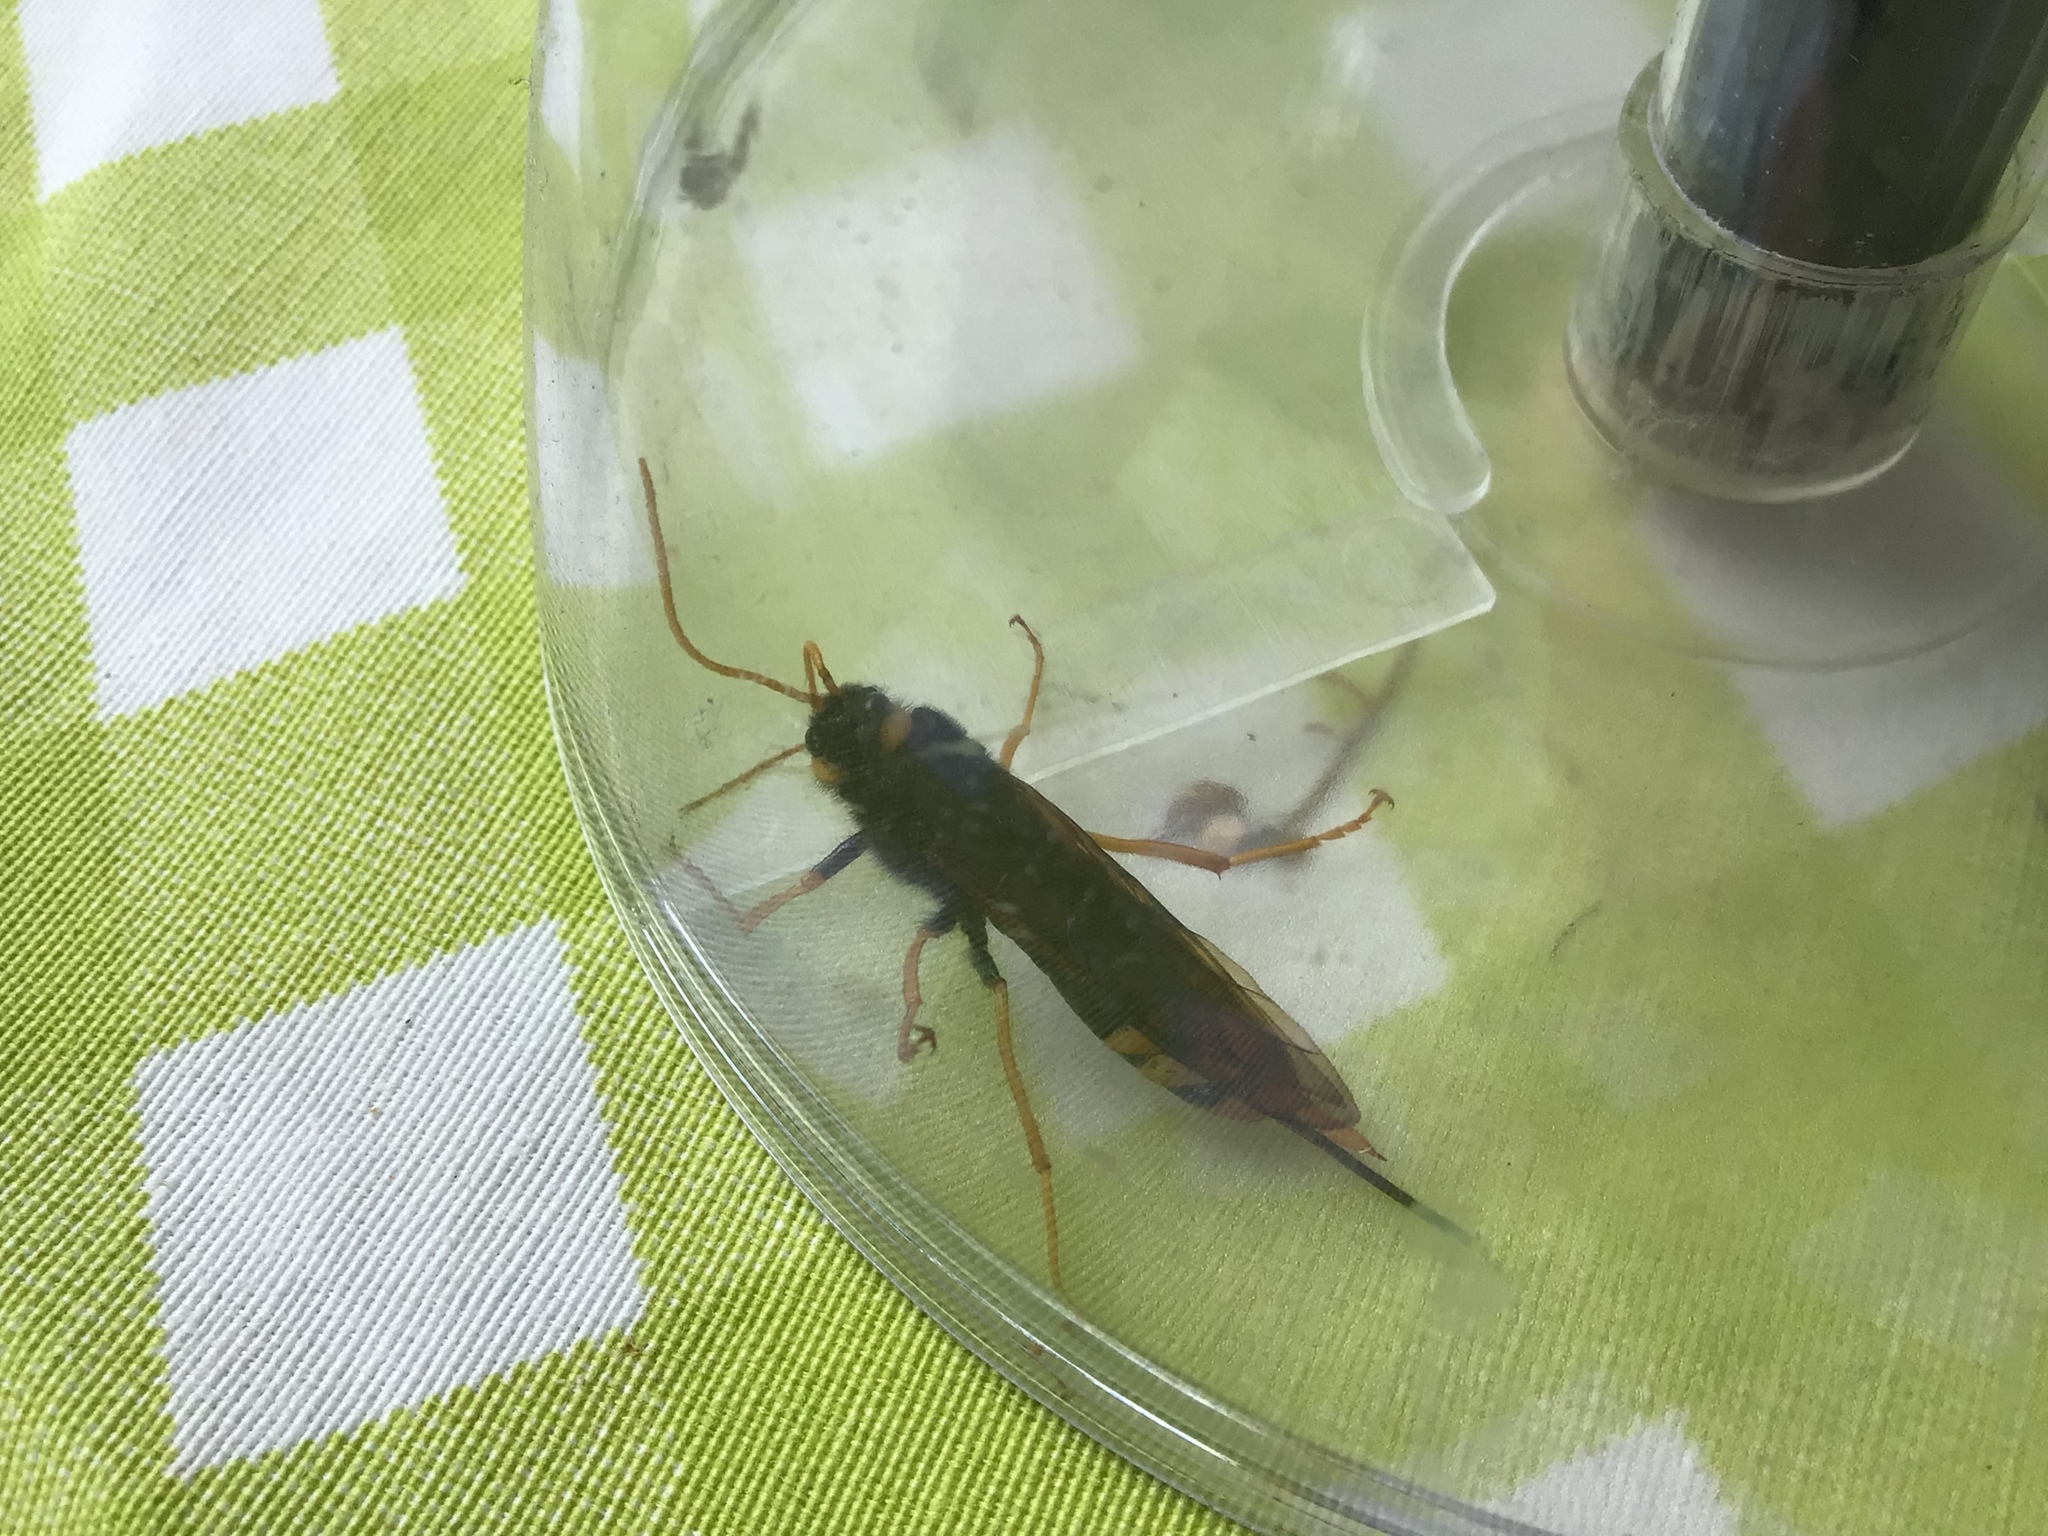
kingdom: Animalia
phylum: Arthropoda
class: Insecta
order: Hymenoptera
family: Siricidae
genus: Urocerus
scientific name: Urocerus gigas
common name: Giant woodwasp
